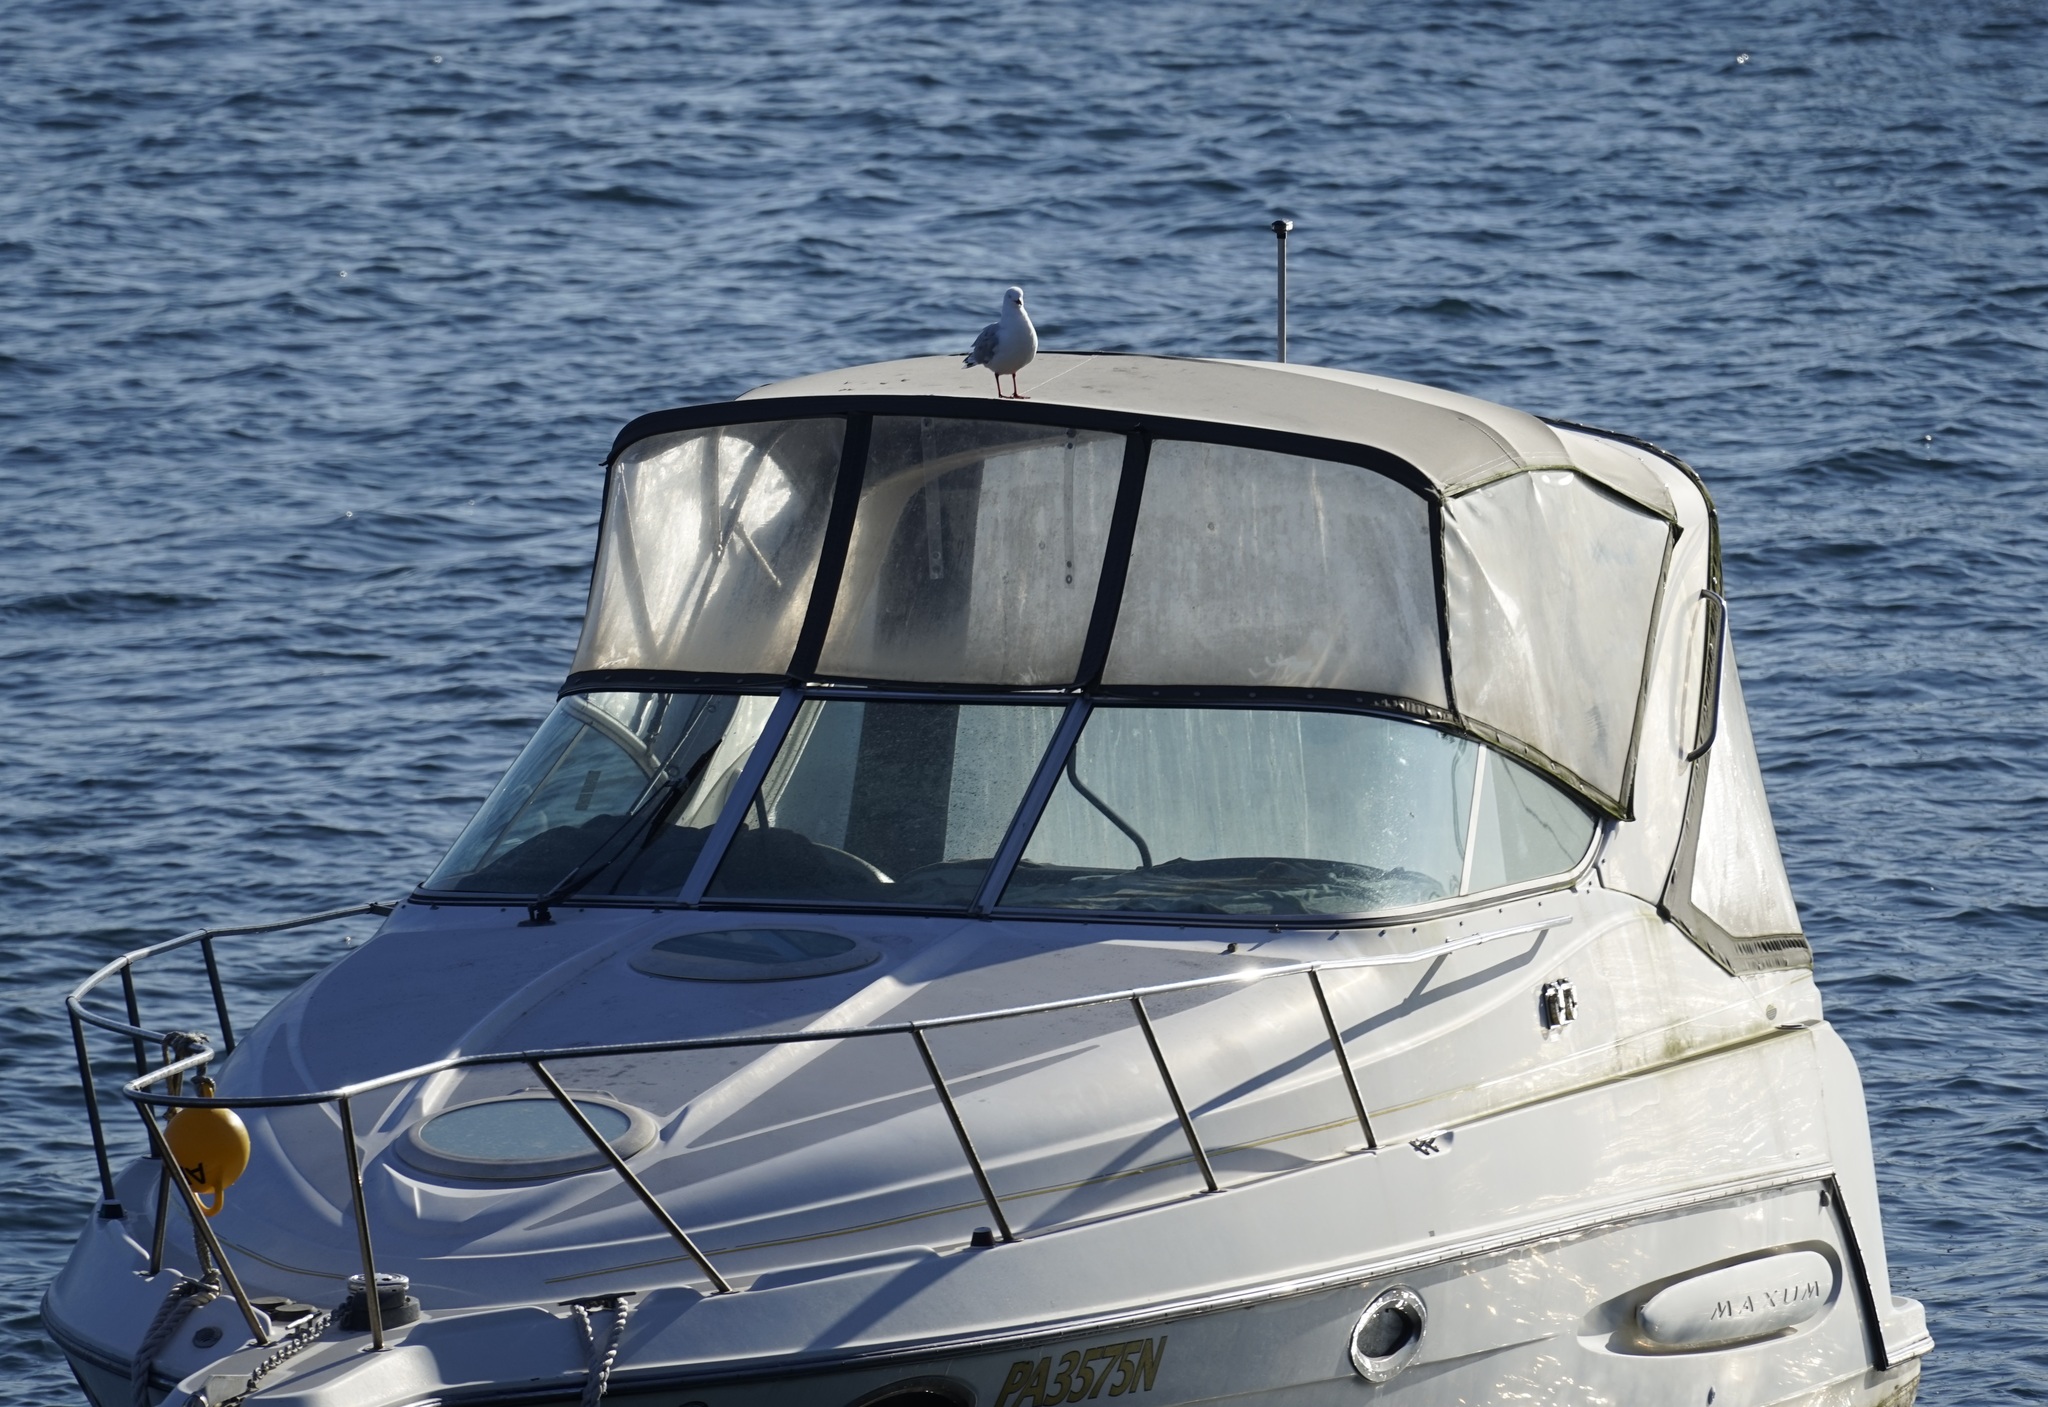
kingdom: Animalia
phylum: Chordata
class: Aves
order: Charadriiformes
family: Laridae
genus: Chroicocephalus
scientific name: Chroicocephalus novaehollandiae
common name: Silver gull
